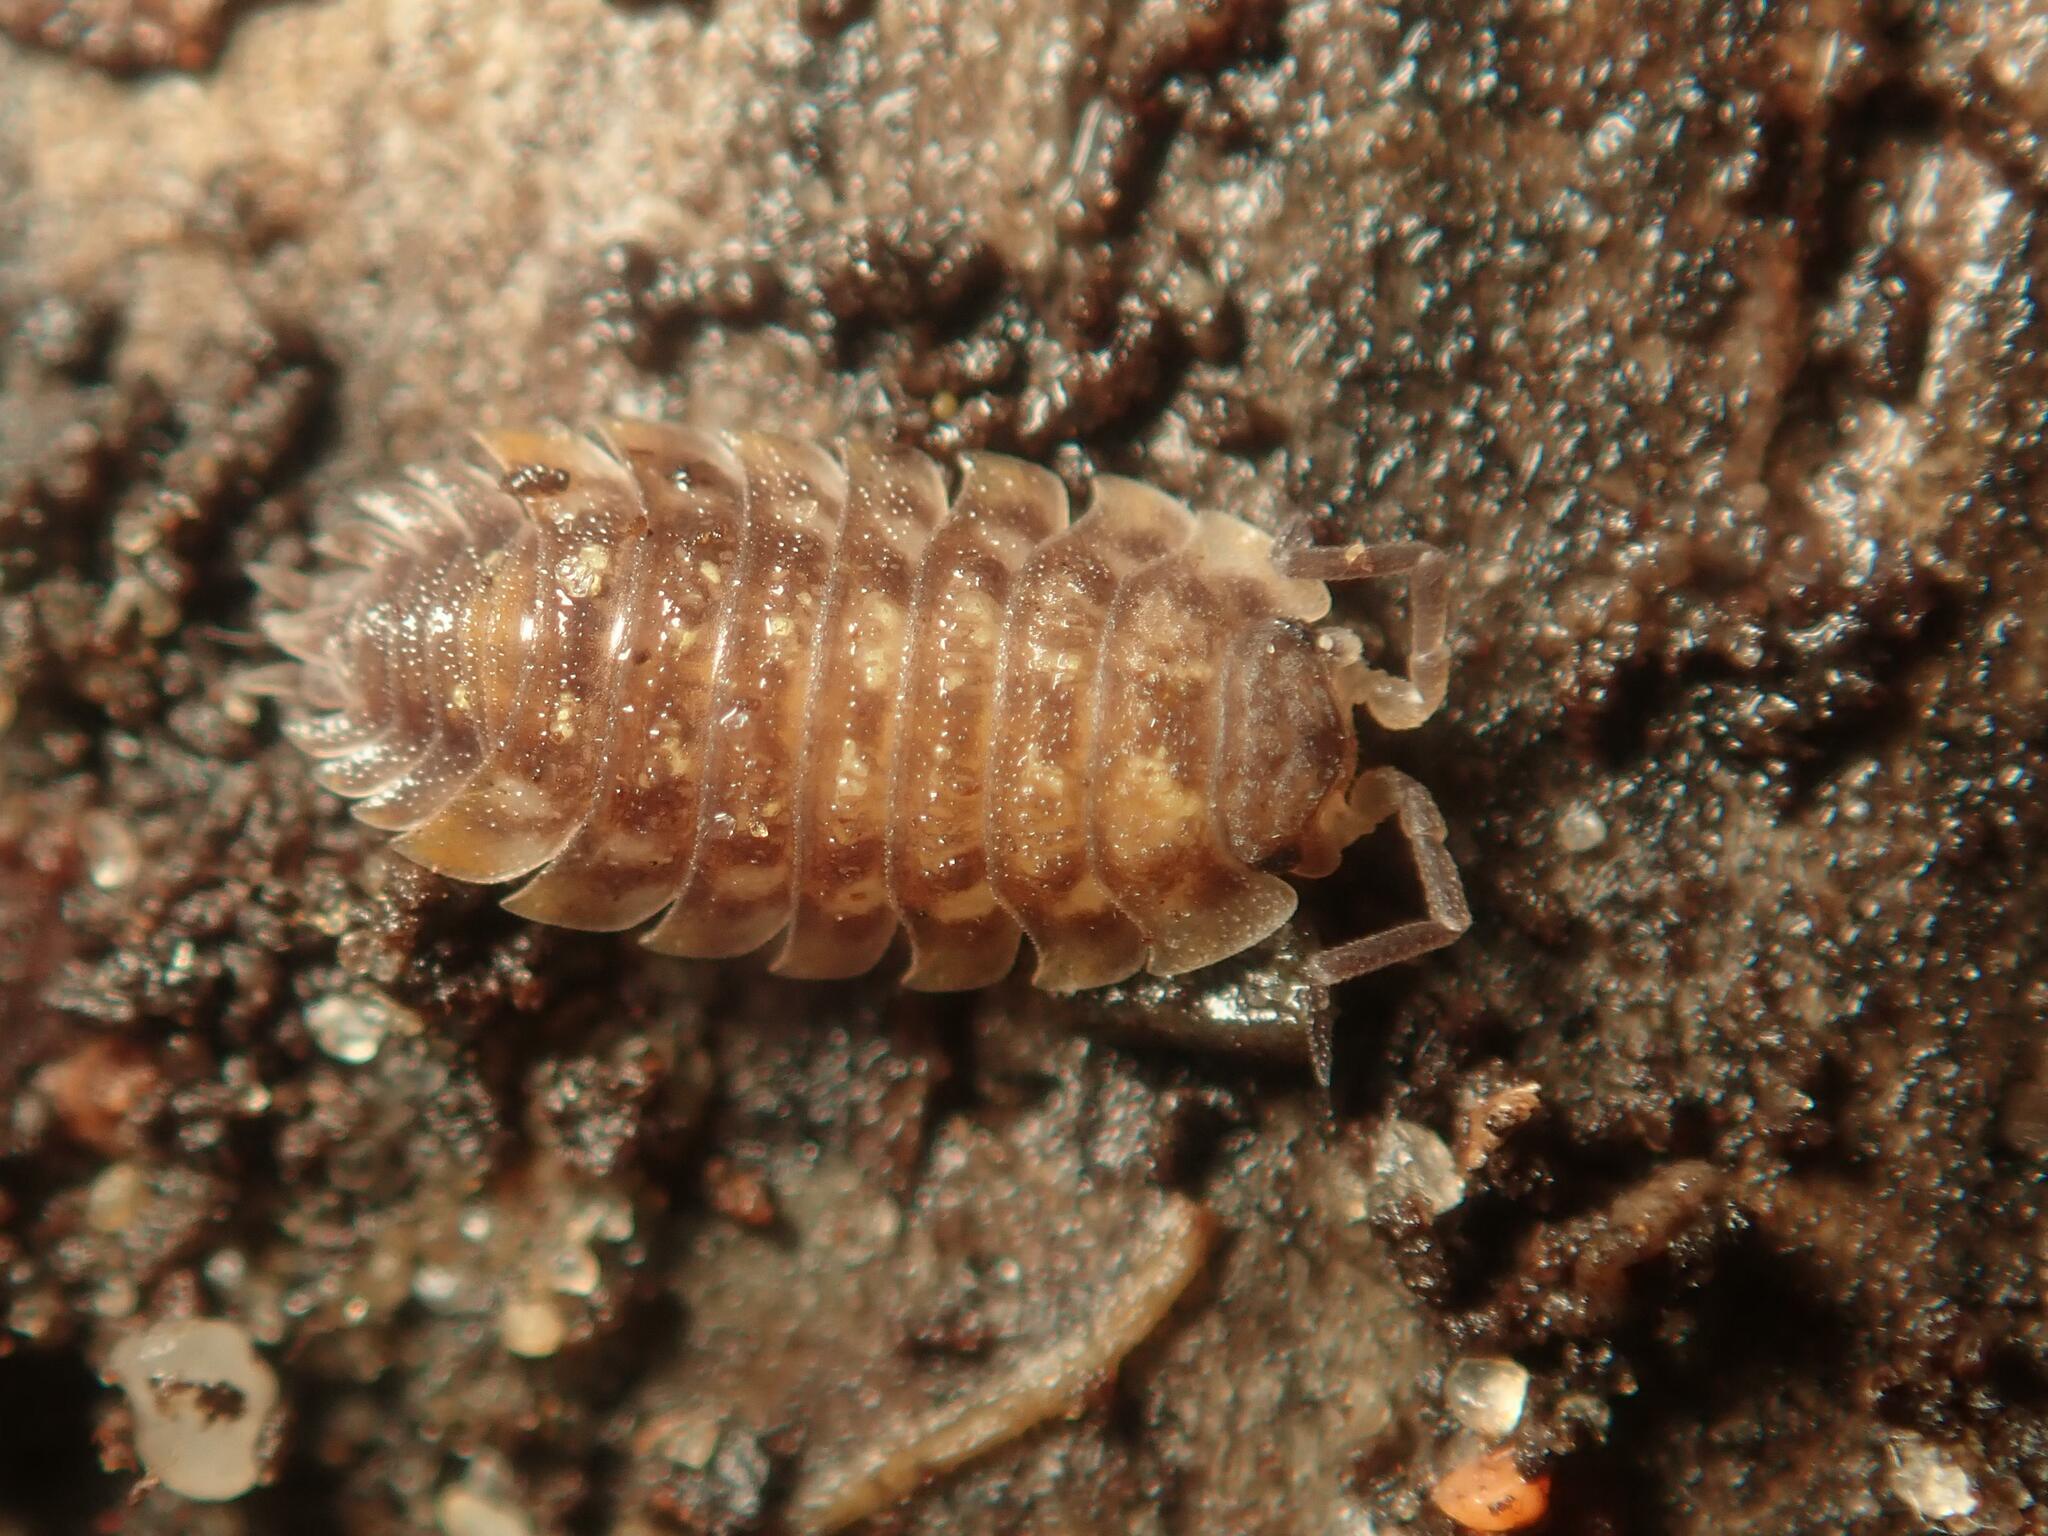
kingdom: Animalia
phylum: Arthropoda
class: Malacostraca
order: Isopoda
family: Oniscidae
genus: Oniscus
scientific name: Oniscus asellus
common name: Common shiny woodlouse
